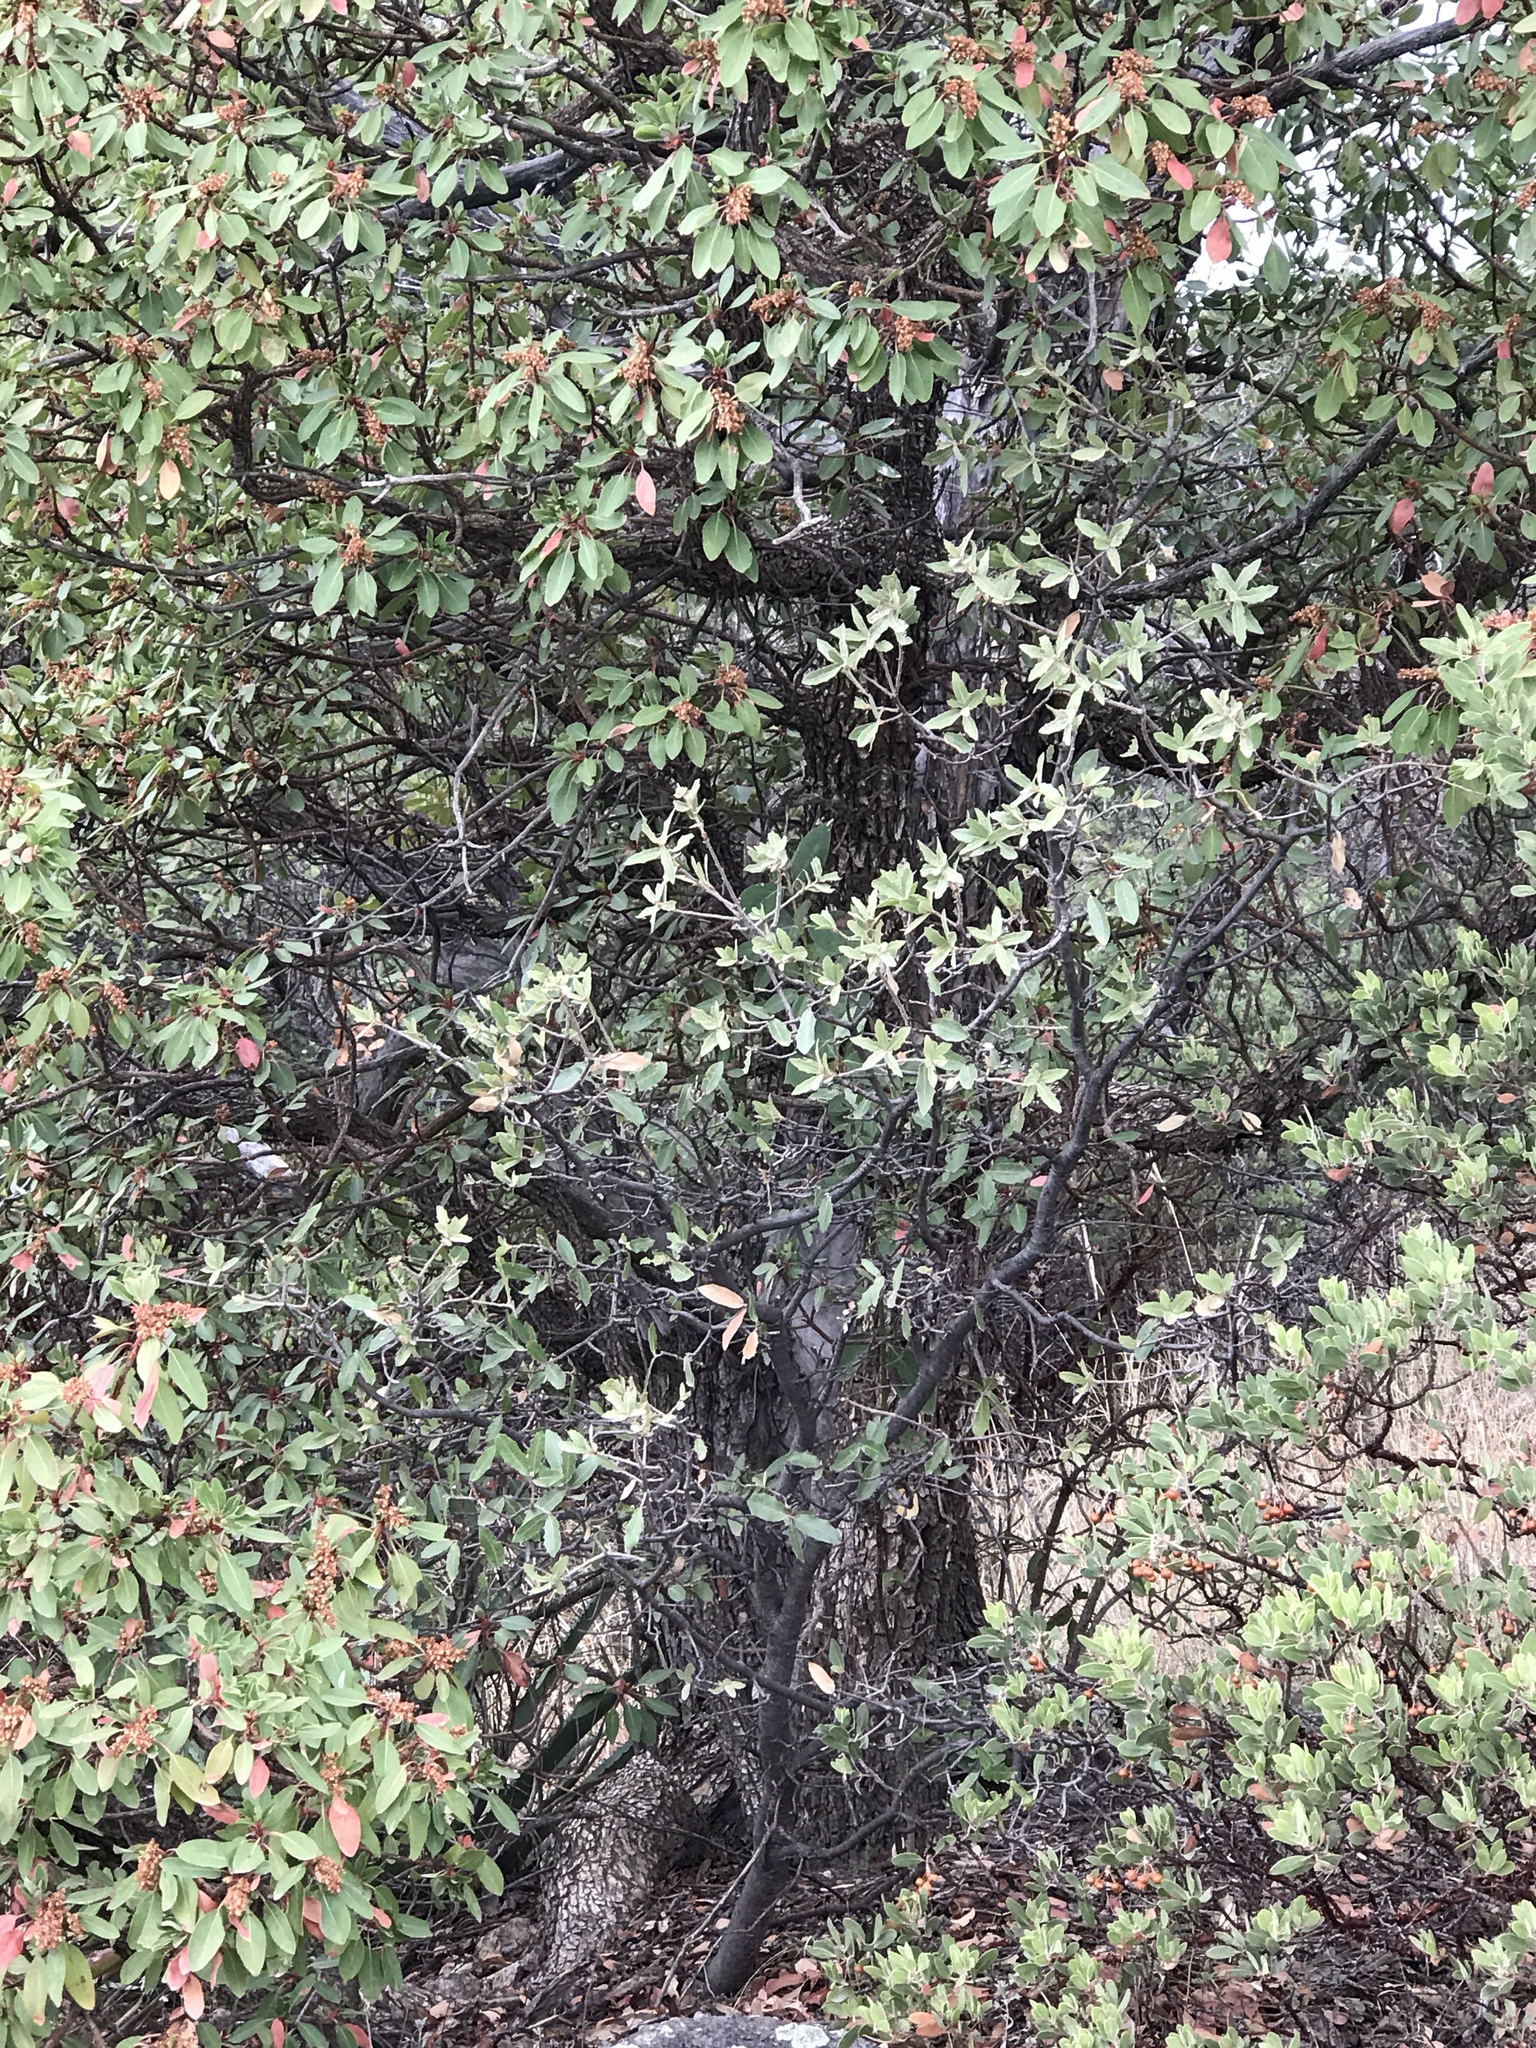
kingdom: Plantae
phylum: Tracheophyta
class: Magnoliopsida
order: Ericales
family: Ericaceae
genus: Arctostaphylos
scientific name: Arctostaphylos pungens
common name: Mexican manzanita
